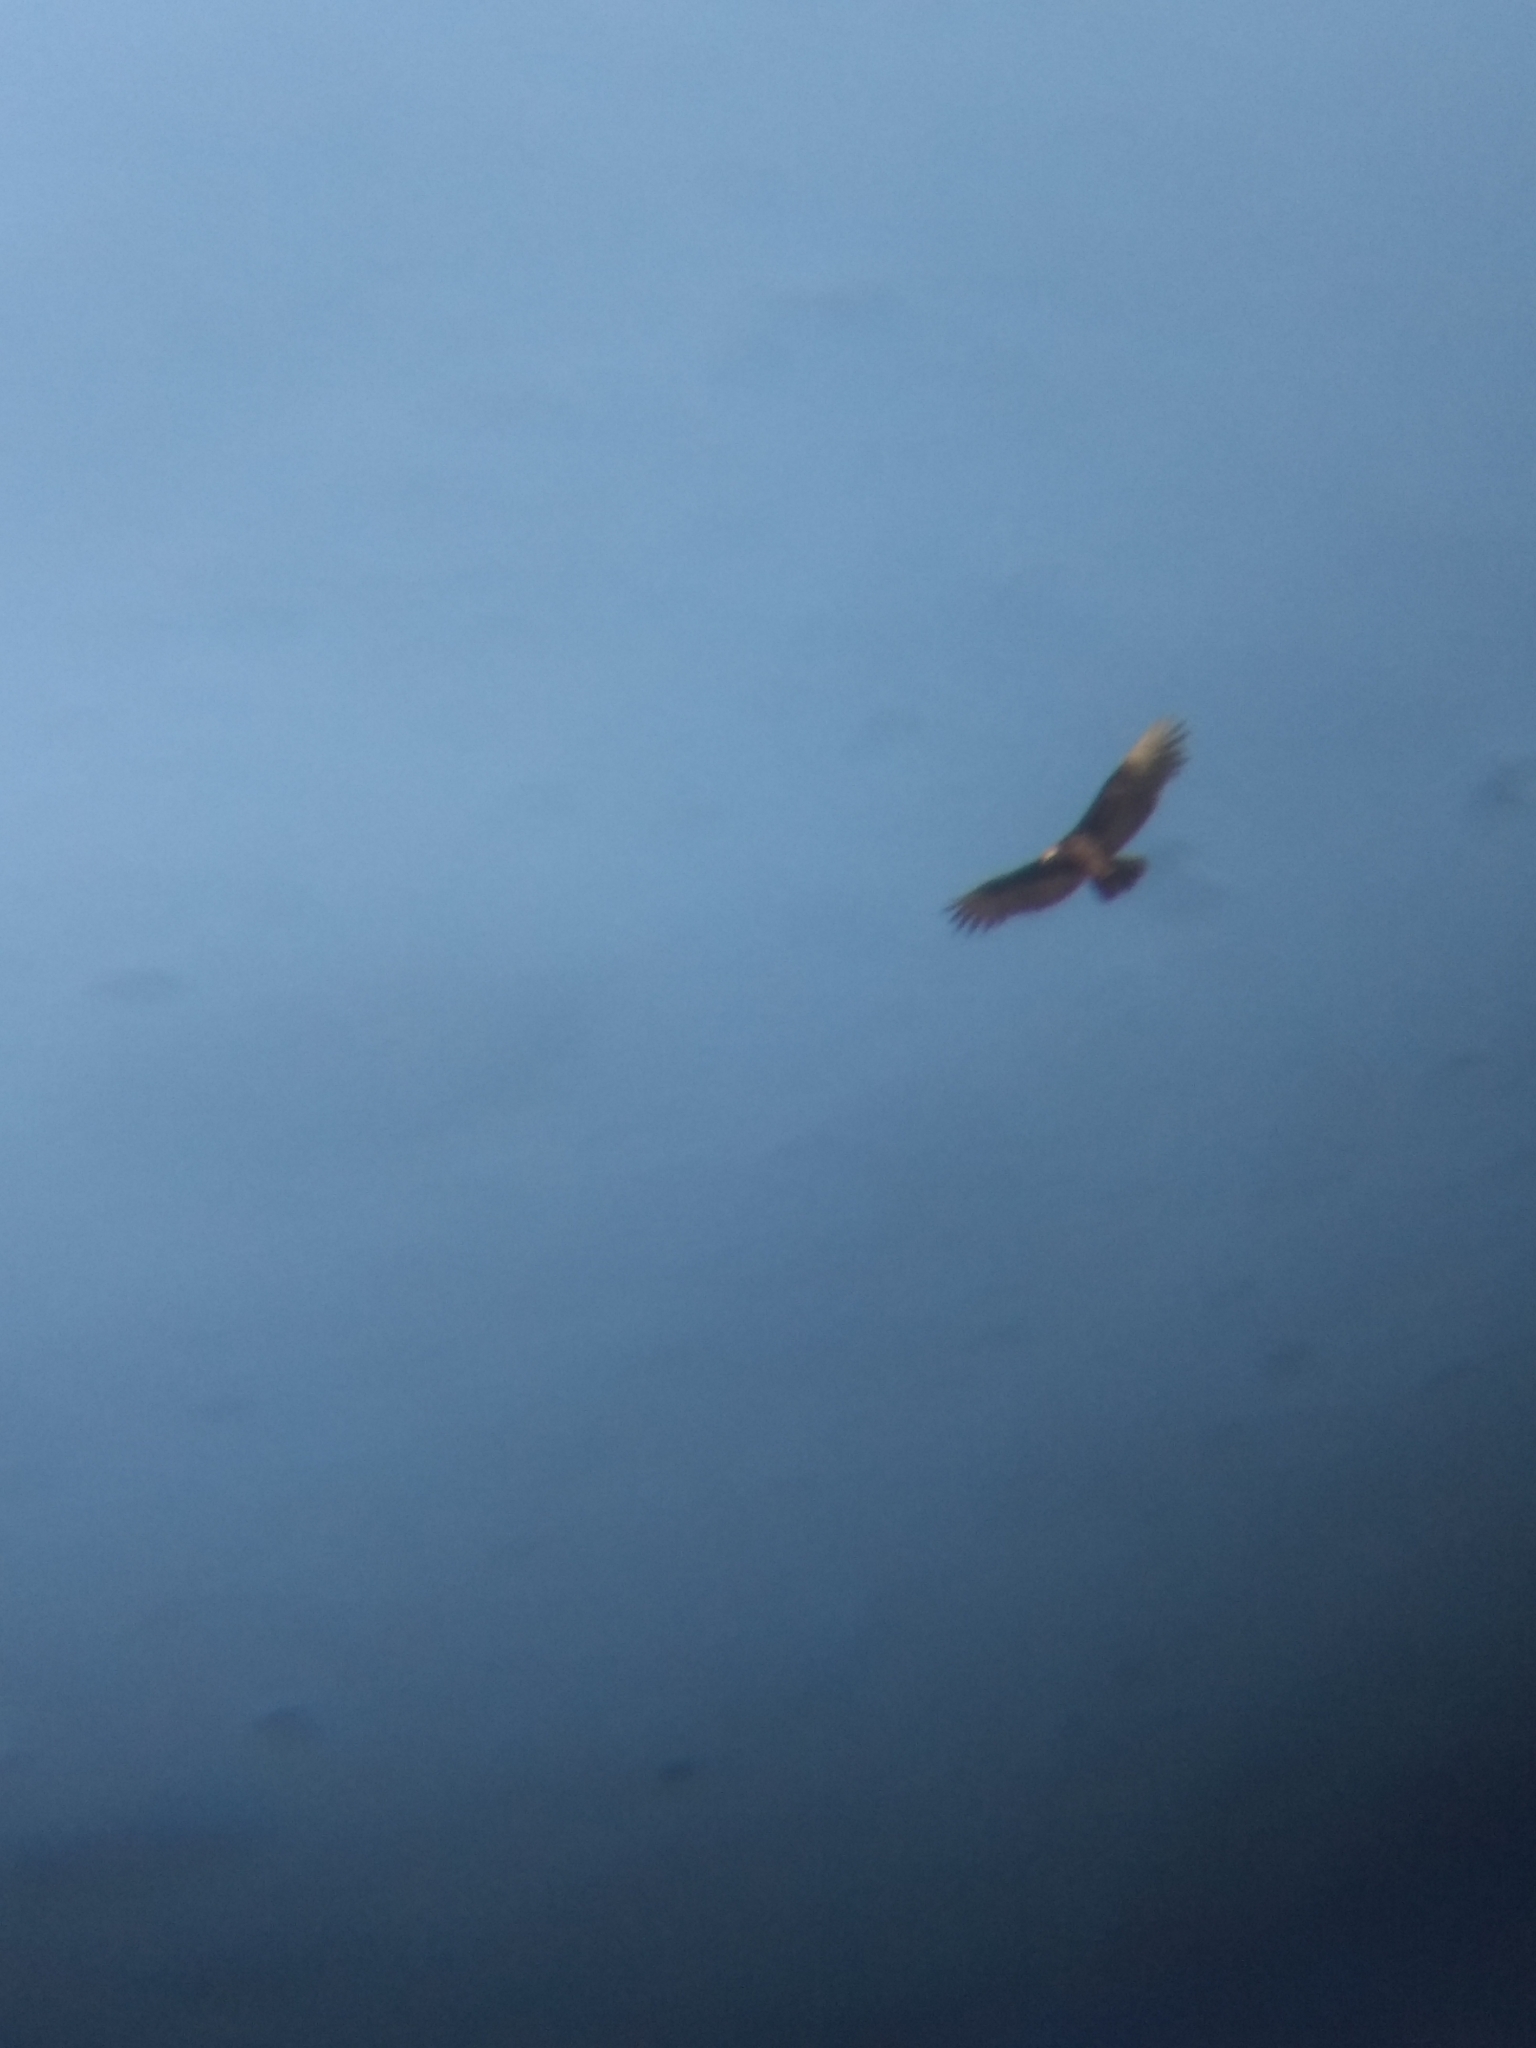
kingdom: Animalia
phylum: Chordata
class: Aves
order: Accipitriformes
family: Cathartidae
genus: Cathartes
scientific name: Cathartes aura
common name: Turkey vulture
